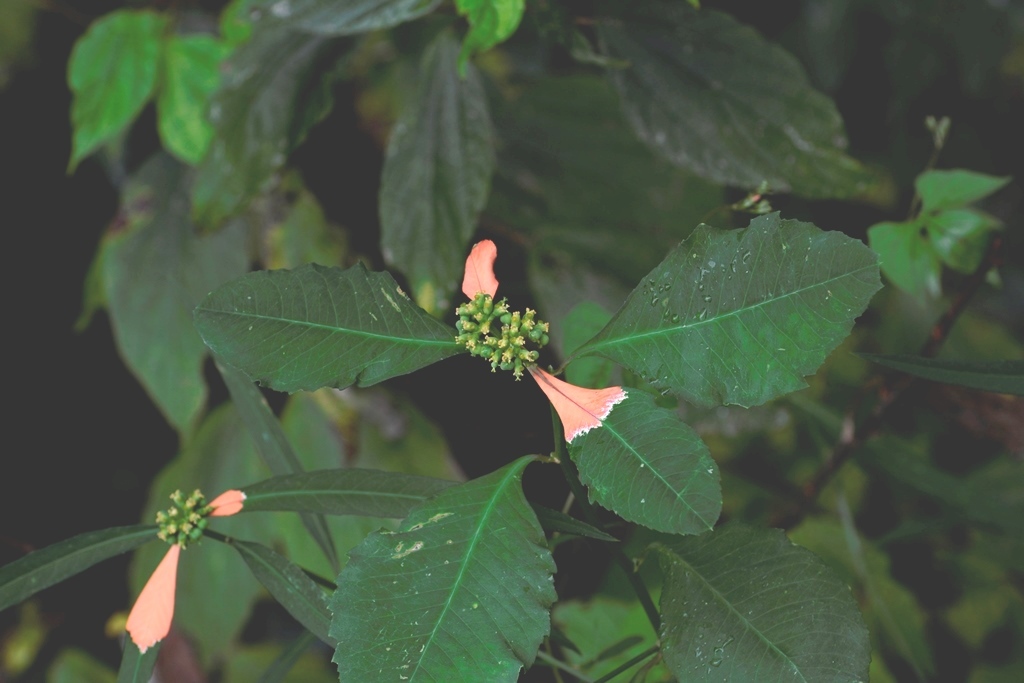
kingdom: Plantae
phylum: Tracheophyta
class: Magnoliopsida
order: Malpighiales
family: Euphorbiaceae
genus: Euphorbia
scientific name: Euphorbia heterophylla
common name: Mexican fireplant
